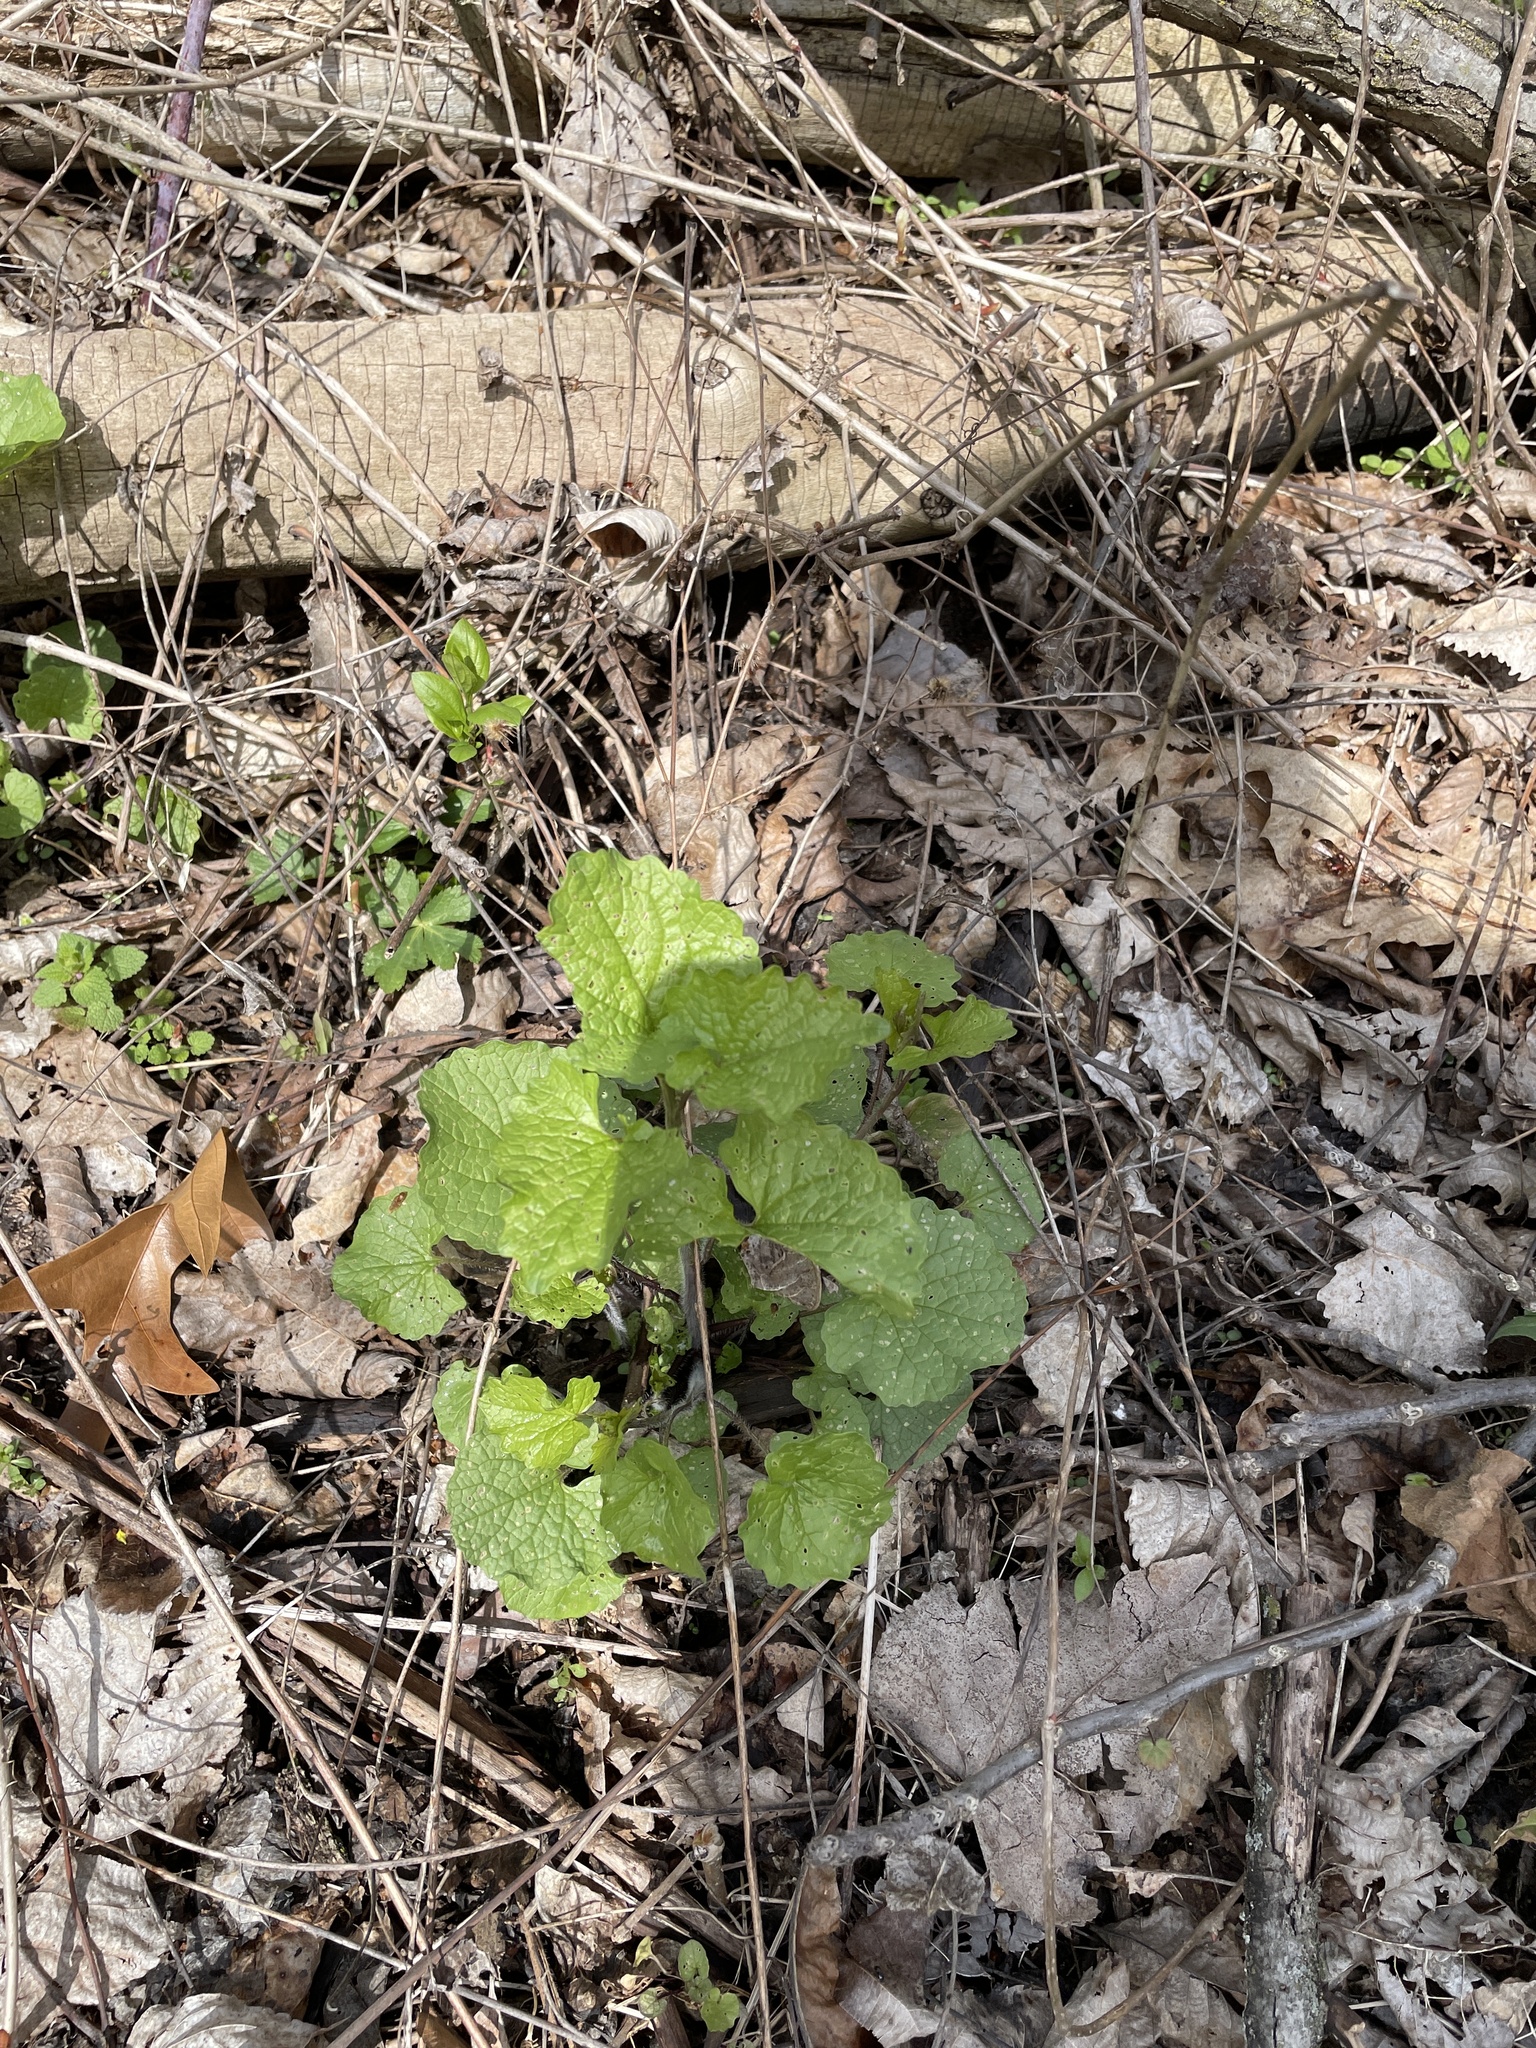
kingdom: Plantae
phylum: Tracheophyta
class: Magnoliopsida
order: Brassicales
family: Brassicaceae
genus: Alliaria
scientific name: Alliaria petiolata
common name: Garlic mustard
